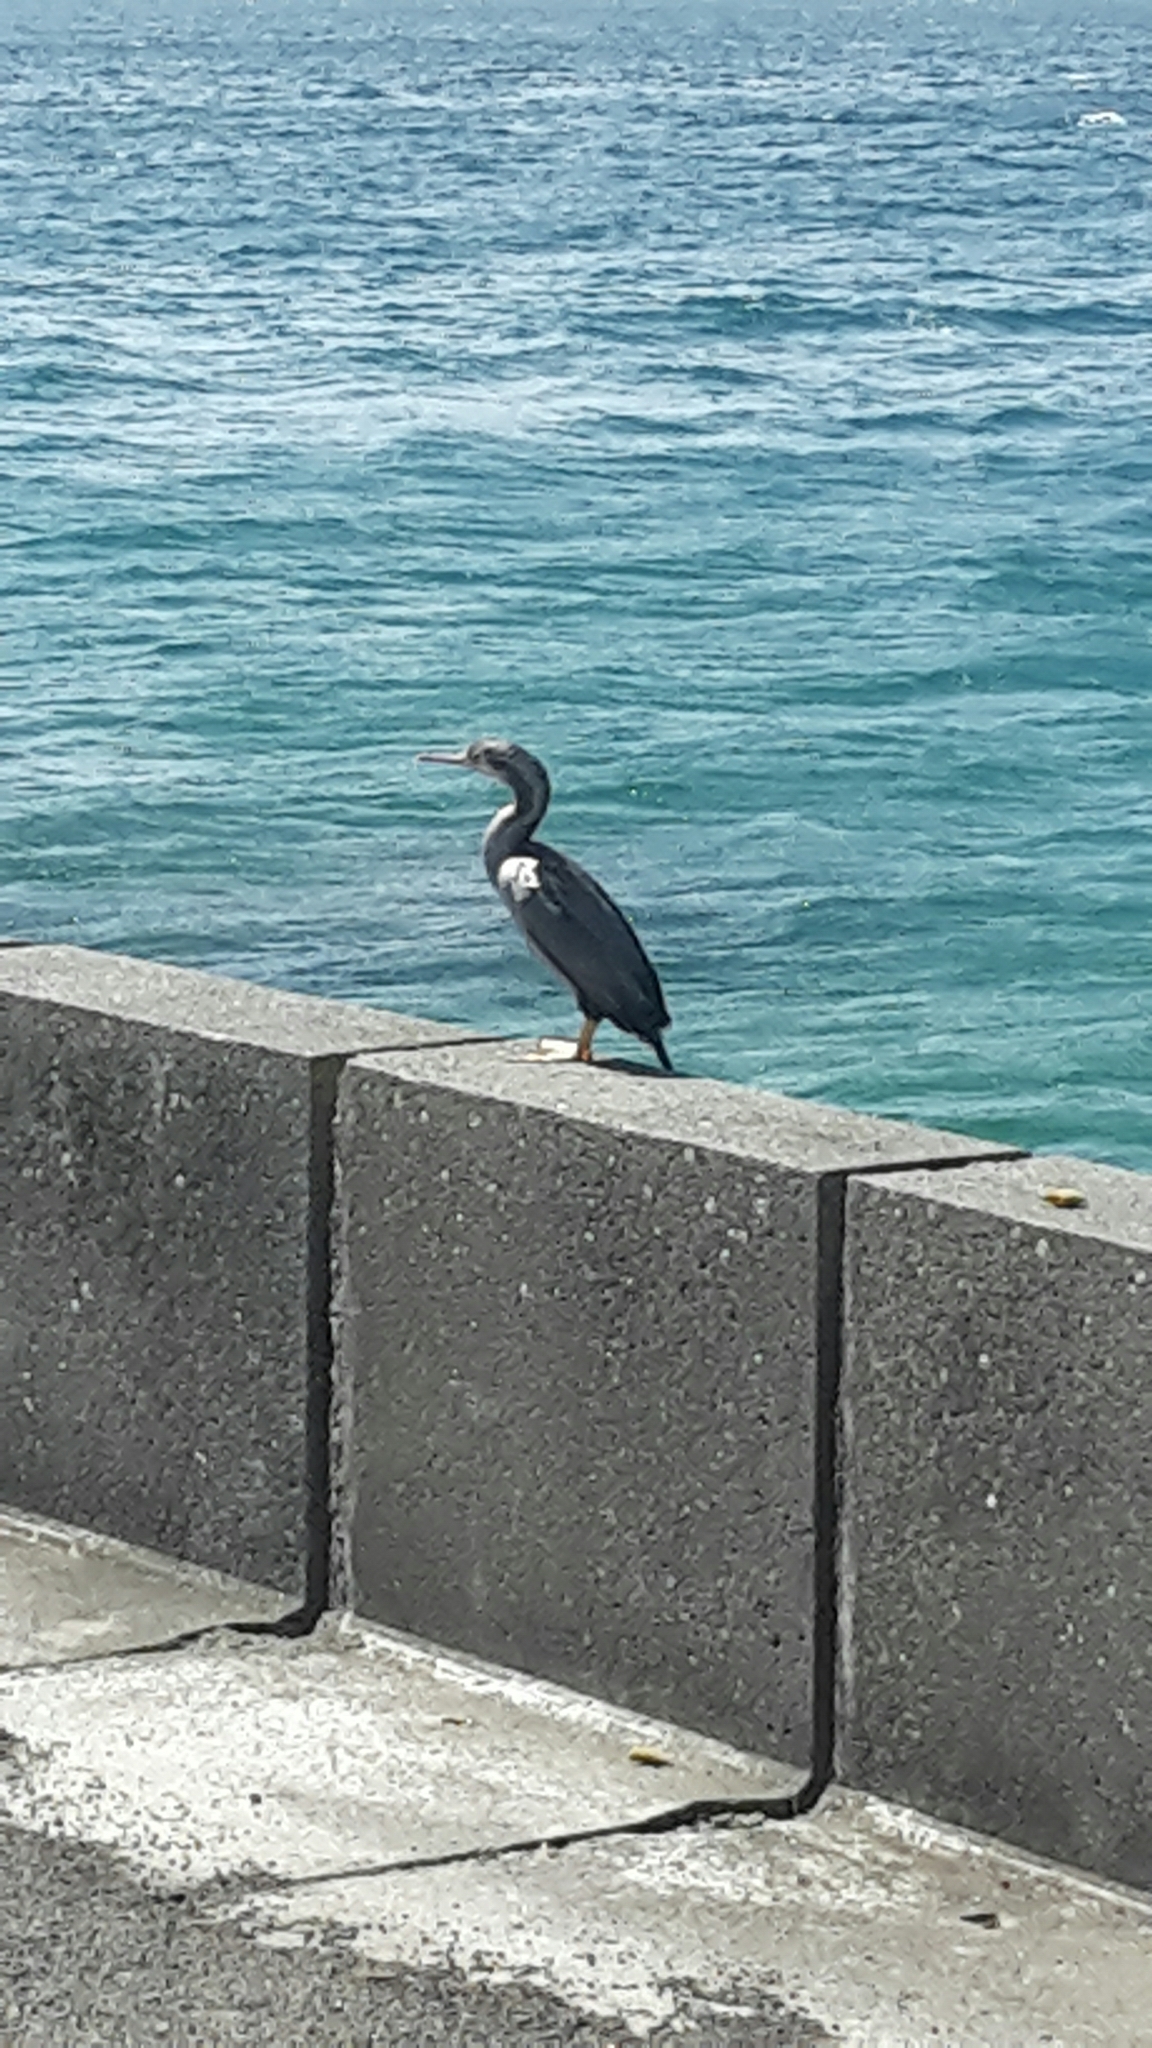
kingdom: Animalia
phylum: Chordata
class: Aves
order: Suliformes
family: Phalacrocoracidae
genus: Phalacrocorax
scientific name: Phalacrocorax punctatus
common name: Spotted shag
